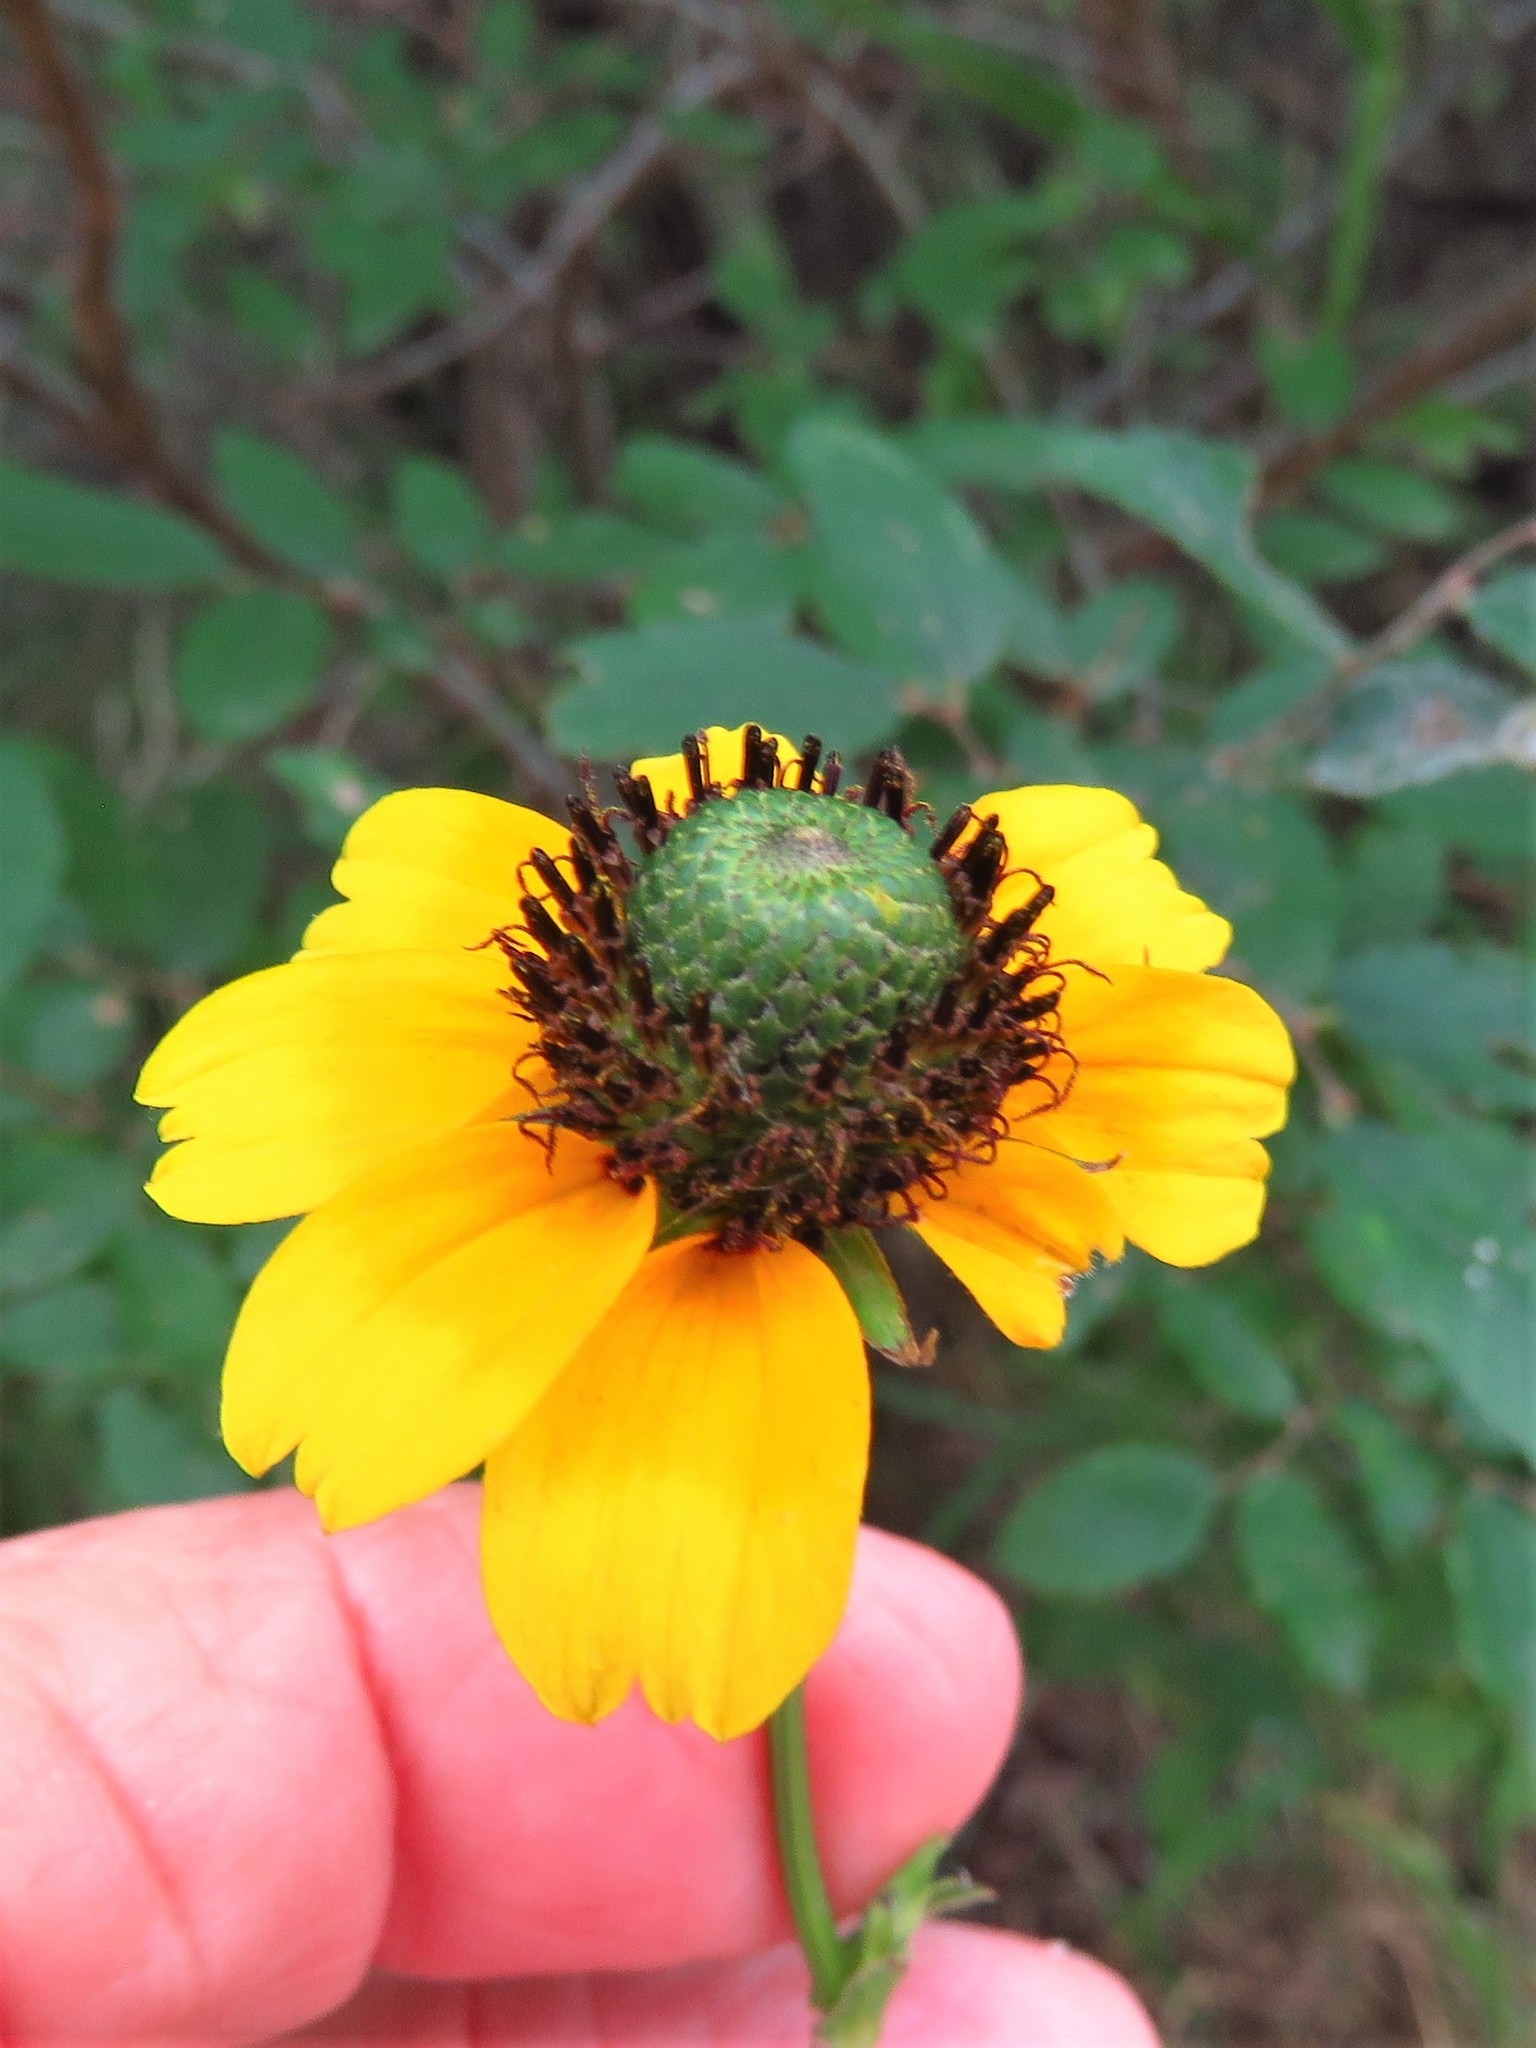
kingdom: Plantae
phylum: Tracheophyta
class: Magnoliopsida
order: Asterales
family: Asteraceae
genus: Rudbeckia
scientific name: Rudbeckia amplexicaulis
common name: Clasping-leaf coneflower
